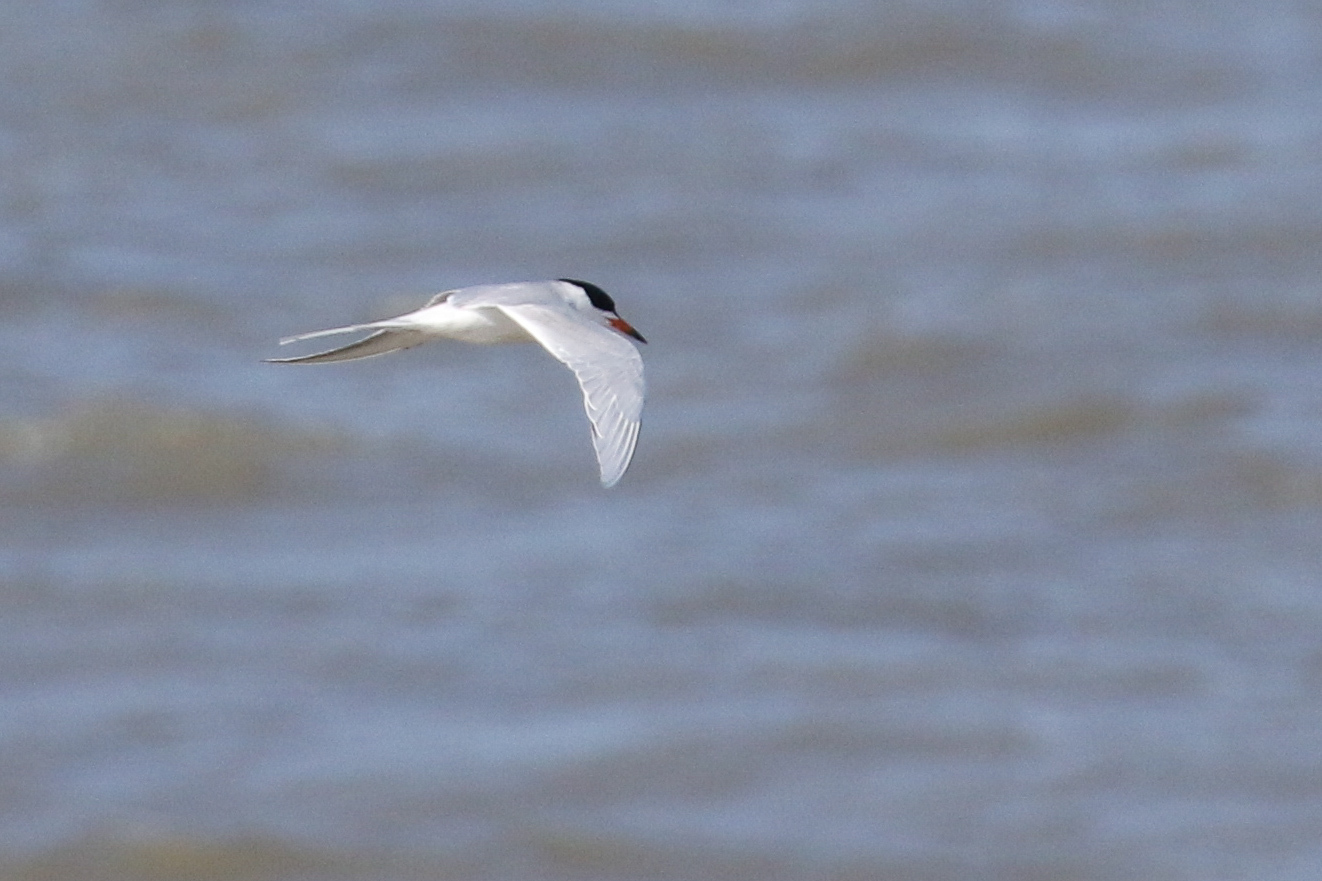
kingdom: Animalia
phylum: Chordata
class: Aves
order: Charadriiformes
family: Laridae
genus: Sterna
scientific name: Sterna forsteri
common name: Forster's tern
